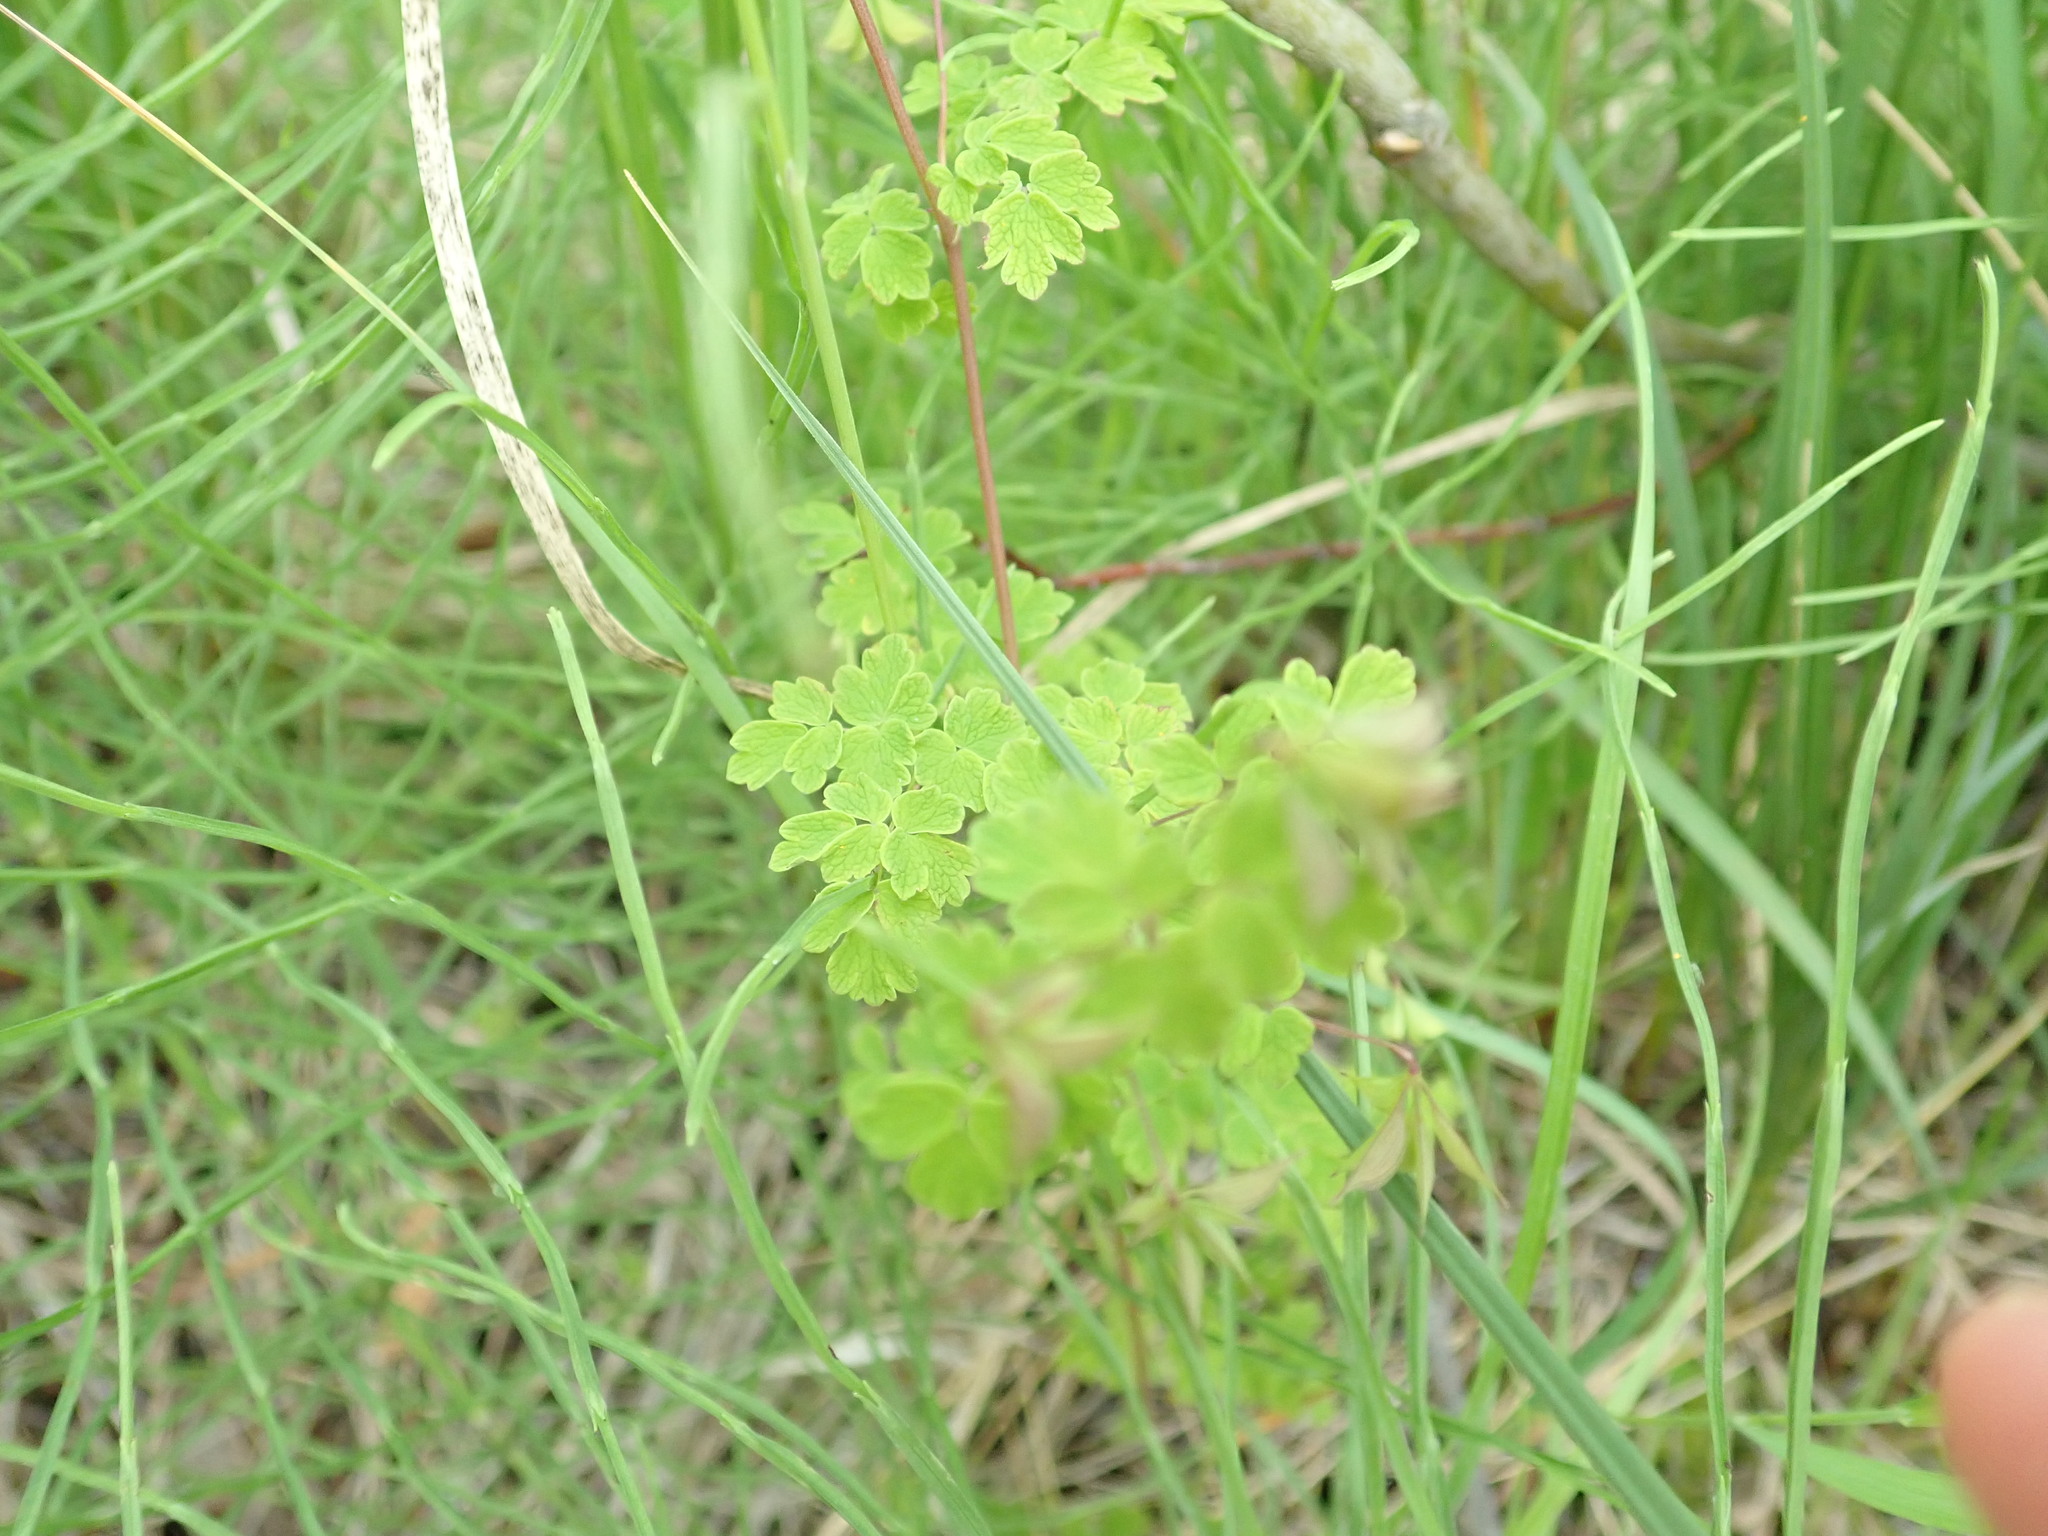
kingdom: Plantae
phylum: Tracheophyta
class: Magnoliopsida
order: Ranunculales
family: Ranunculaceae
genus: Thalictrum
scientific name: Thalictrum sparsiflorum
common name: Mountain meadow-rue
